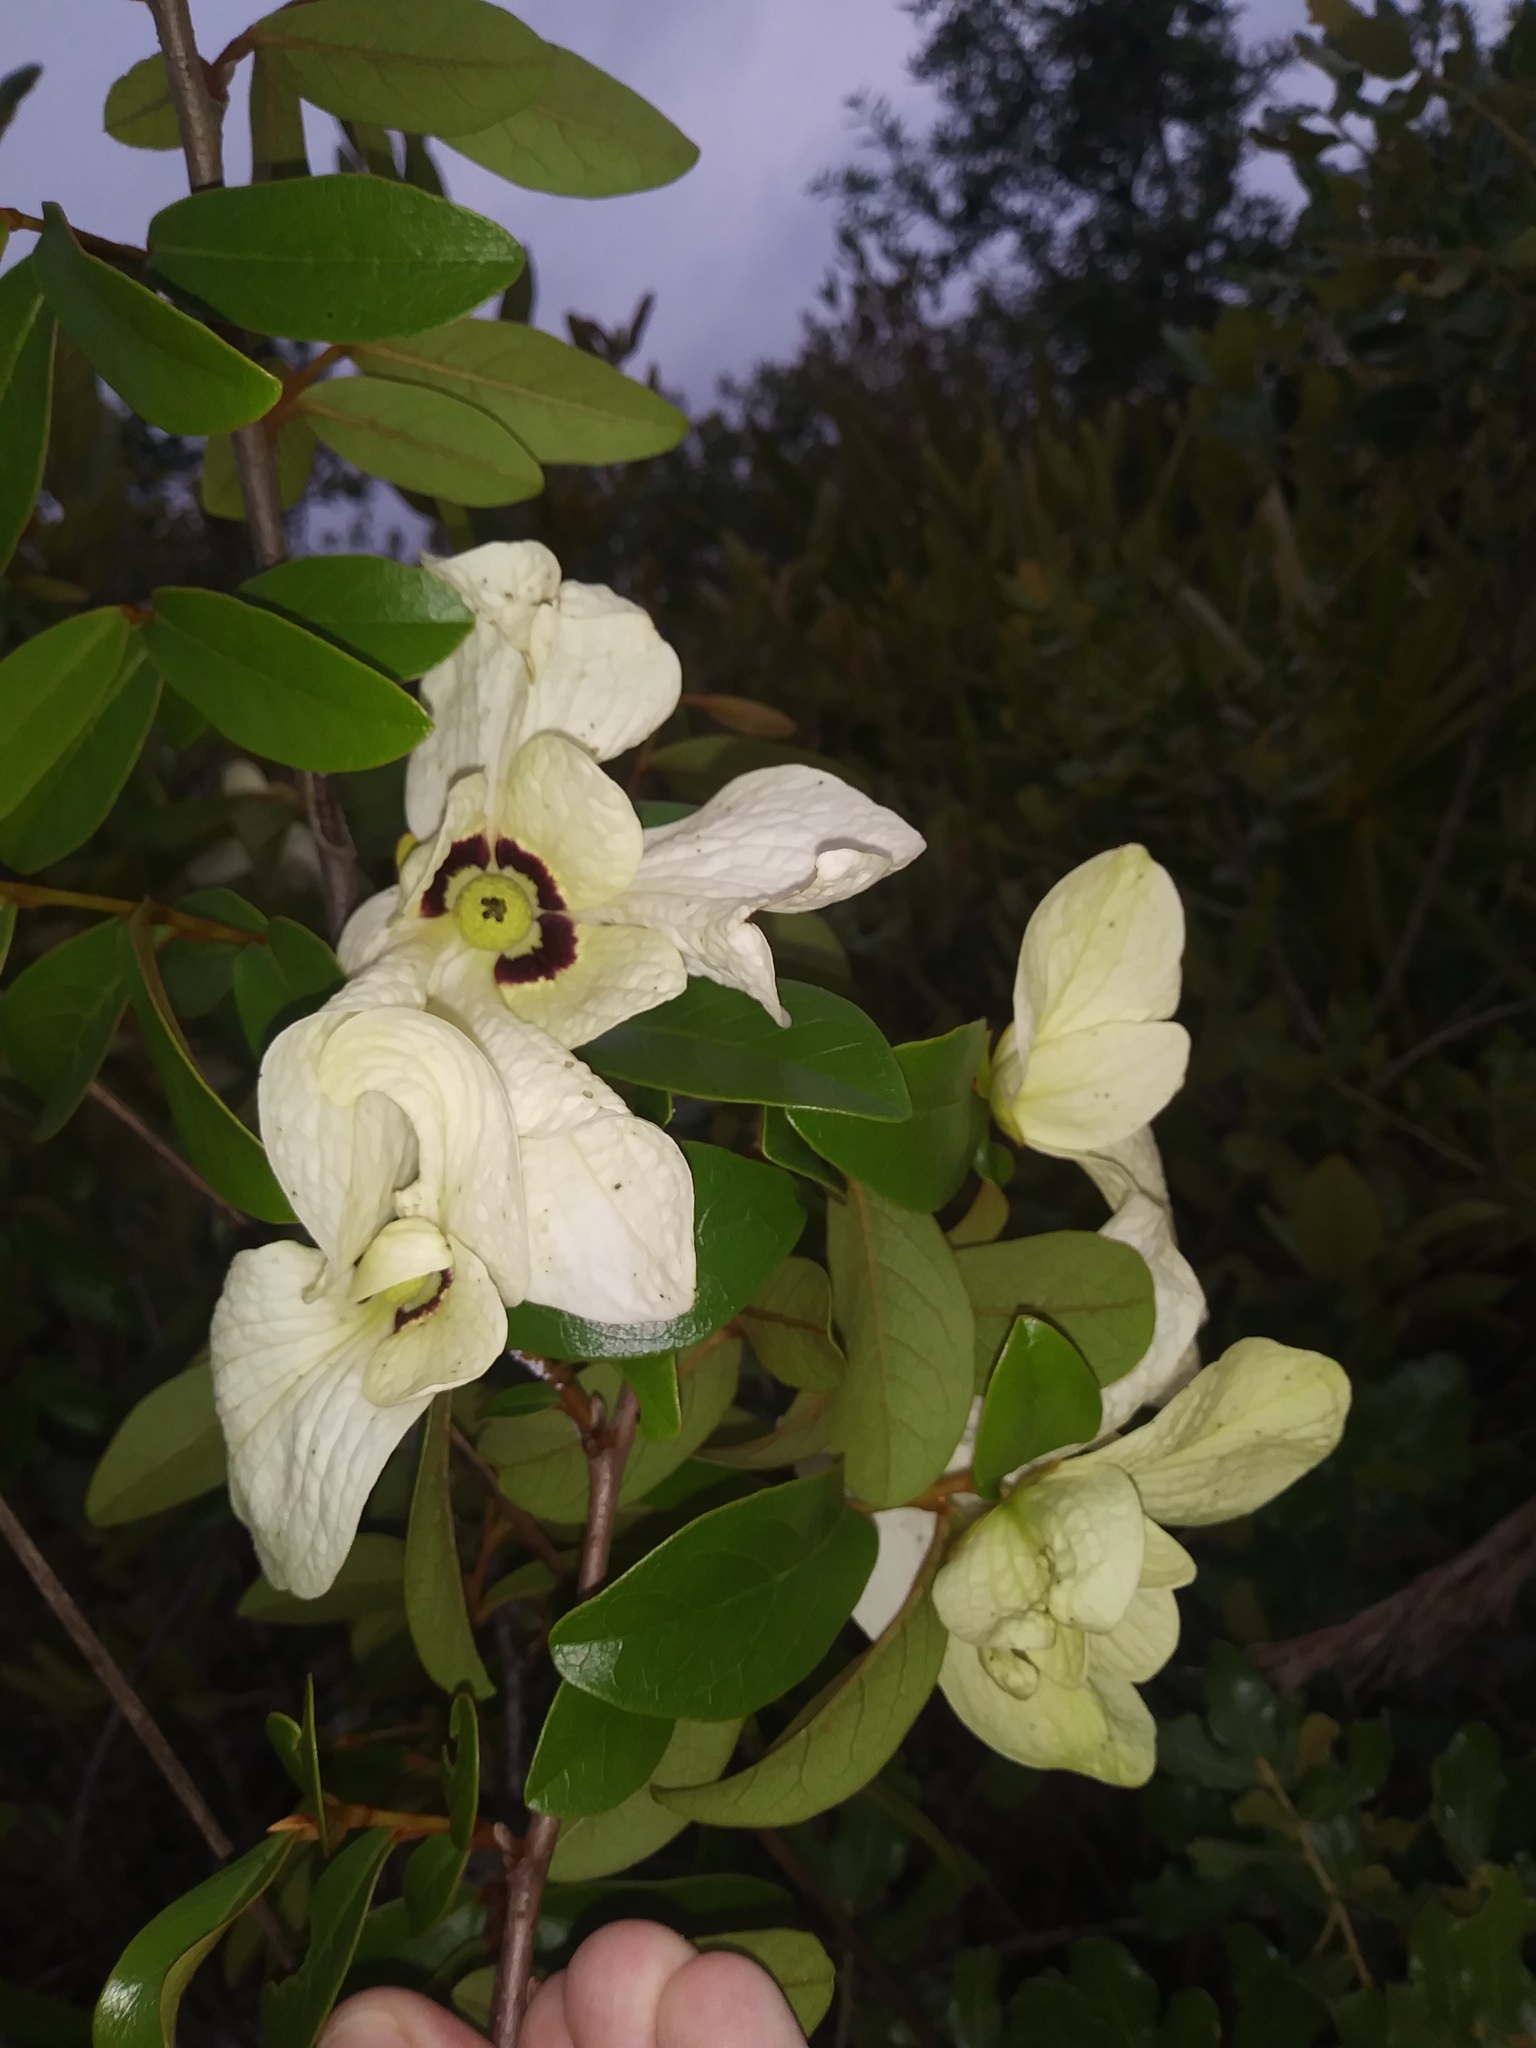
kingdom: Plantae
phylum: Tracheophyta
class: Magnoliopsida
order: Magnoliales
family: Annonaceae
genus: Asimina
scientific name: Asimina obovata
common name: Flag pawpaw
